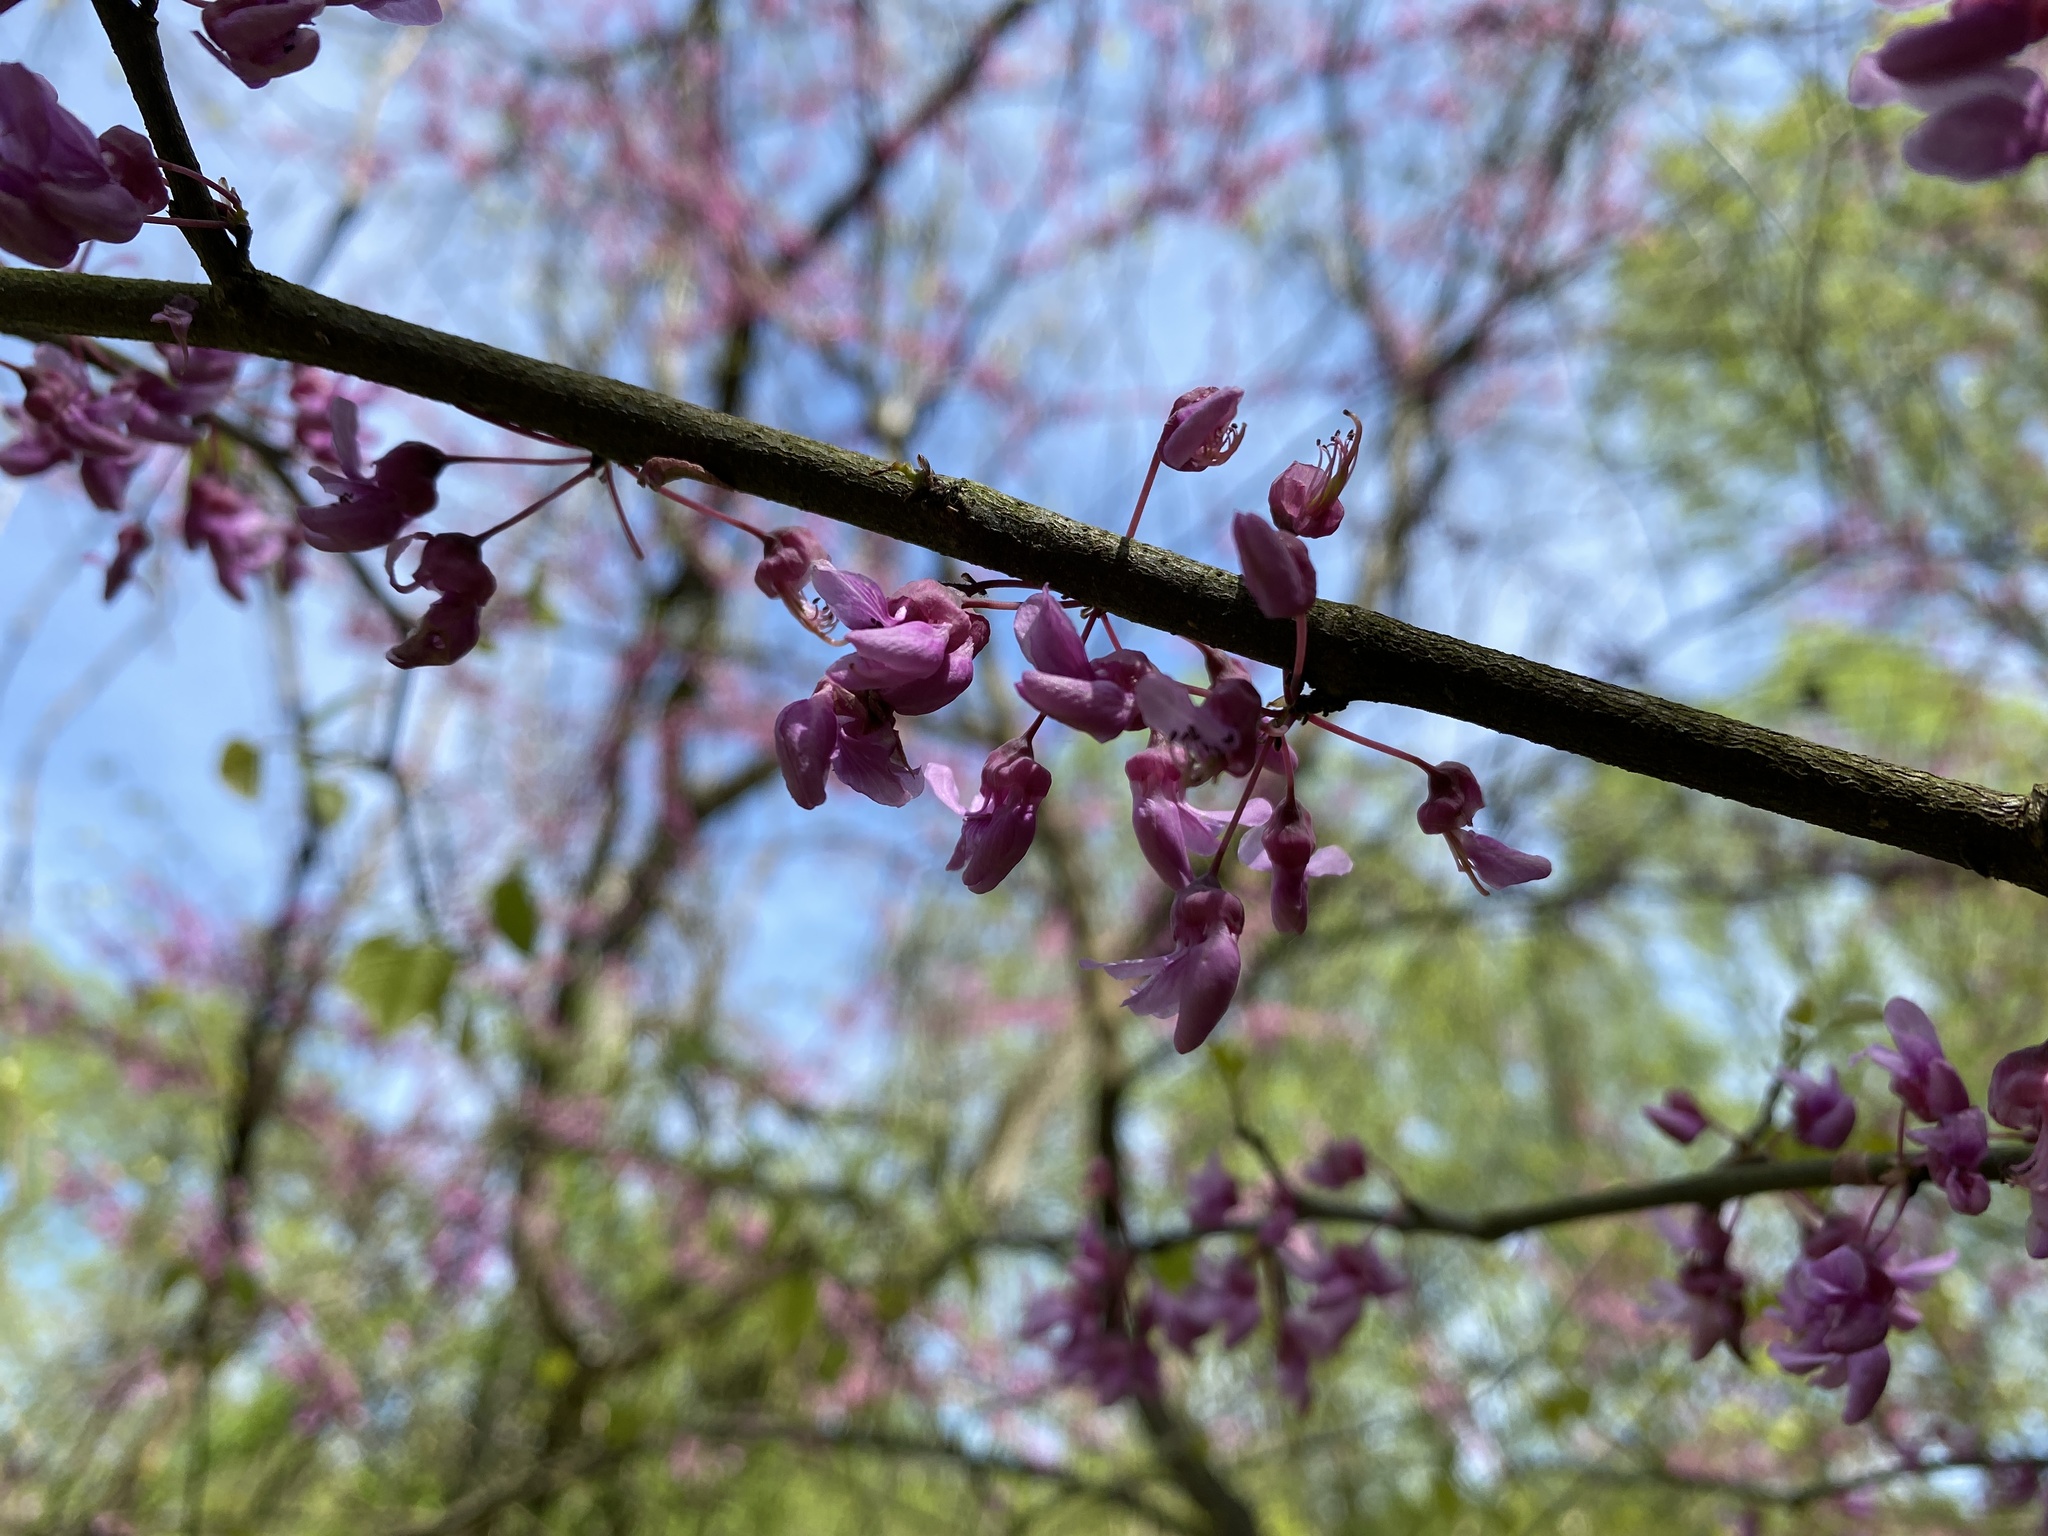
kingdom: Plantae
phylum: Tracheophyta
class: Magnoliopsida
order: Fabales
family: Fabaceae
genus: Cercis
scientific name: Cercis canadensis
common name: Eastern redbud
